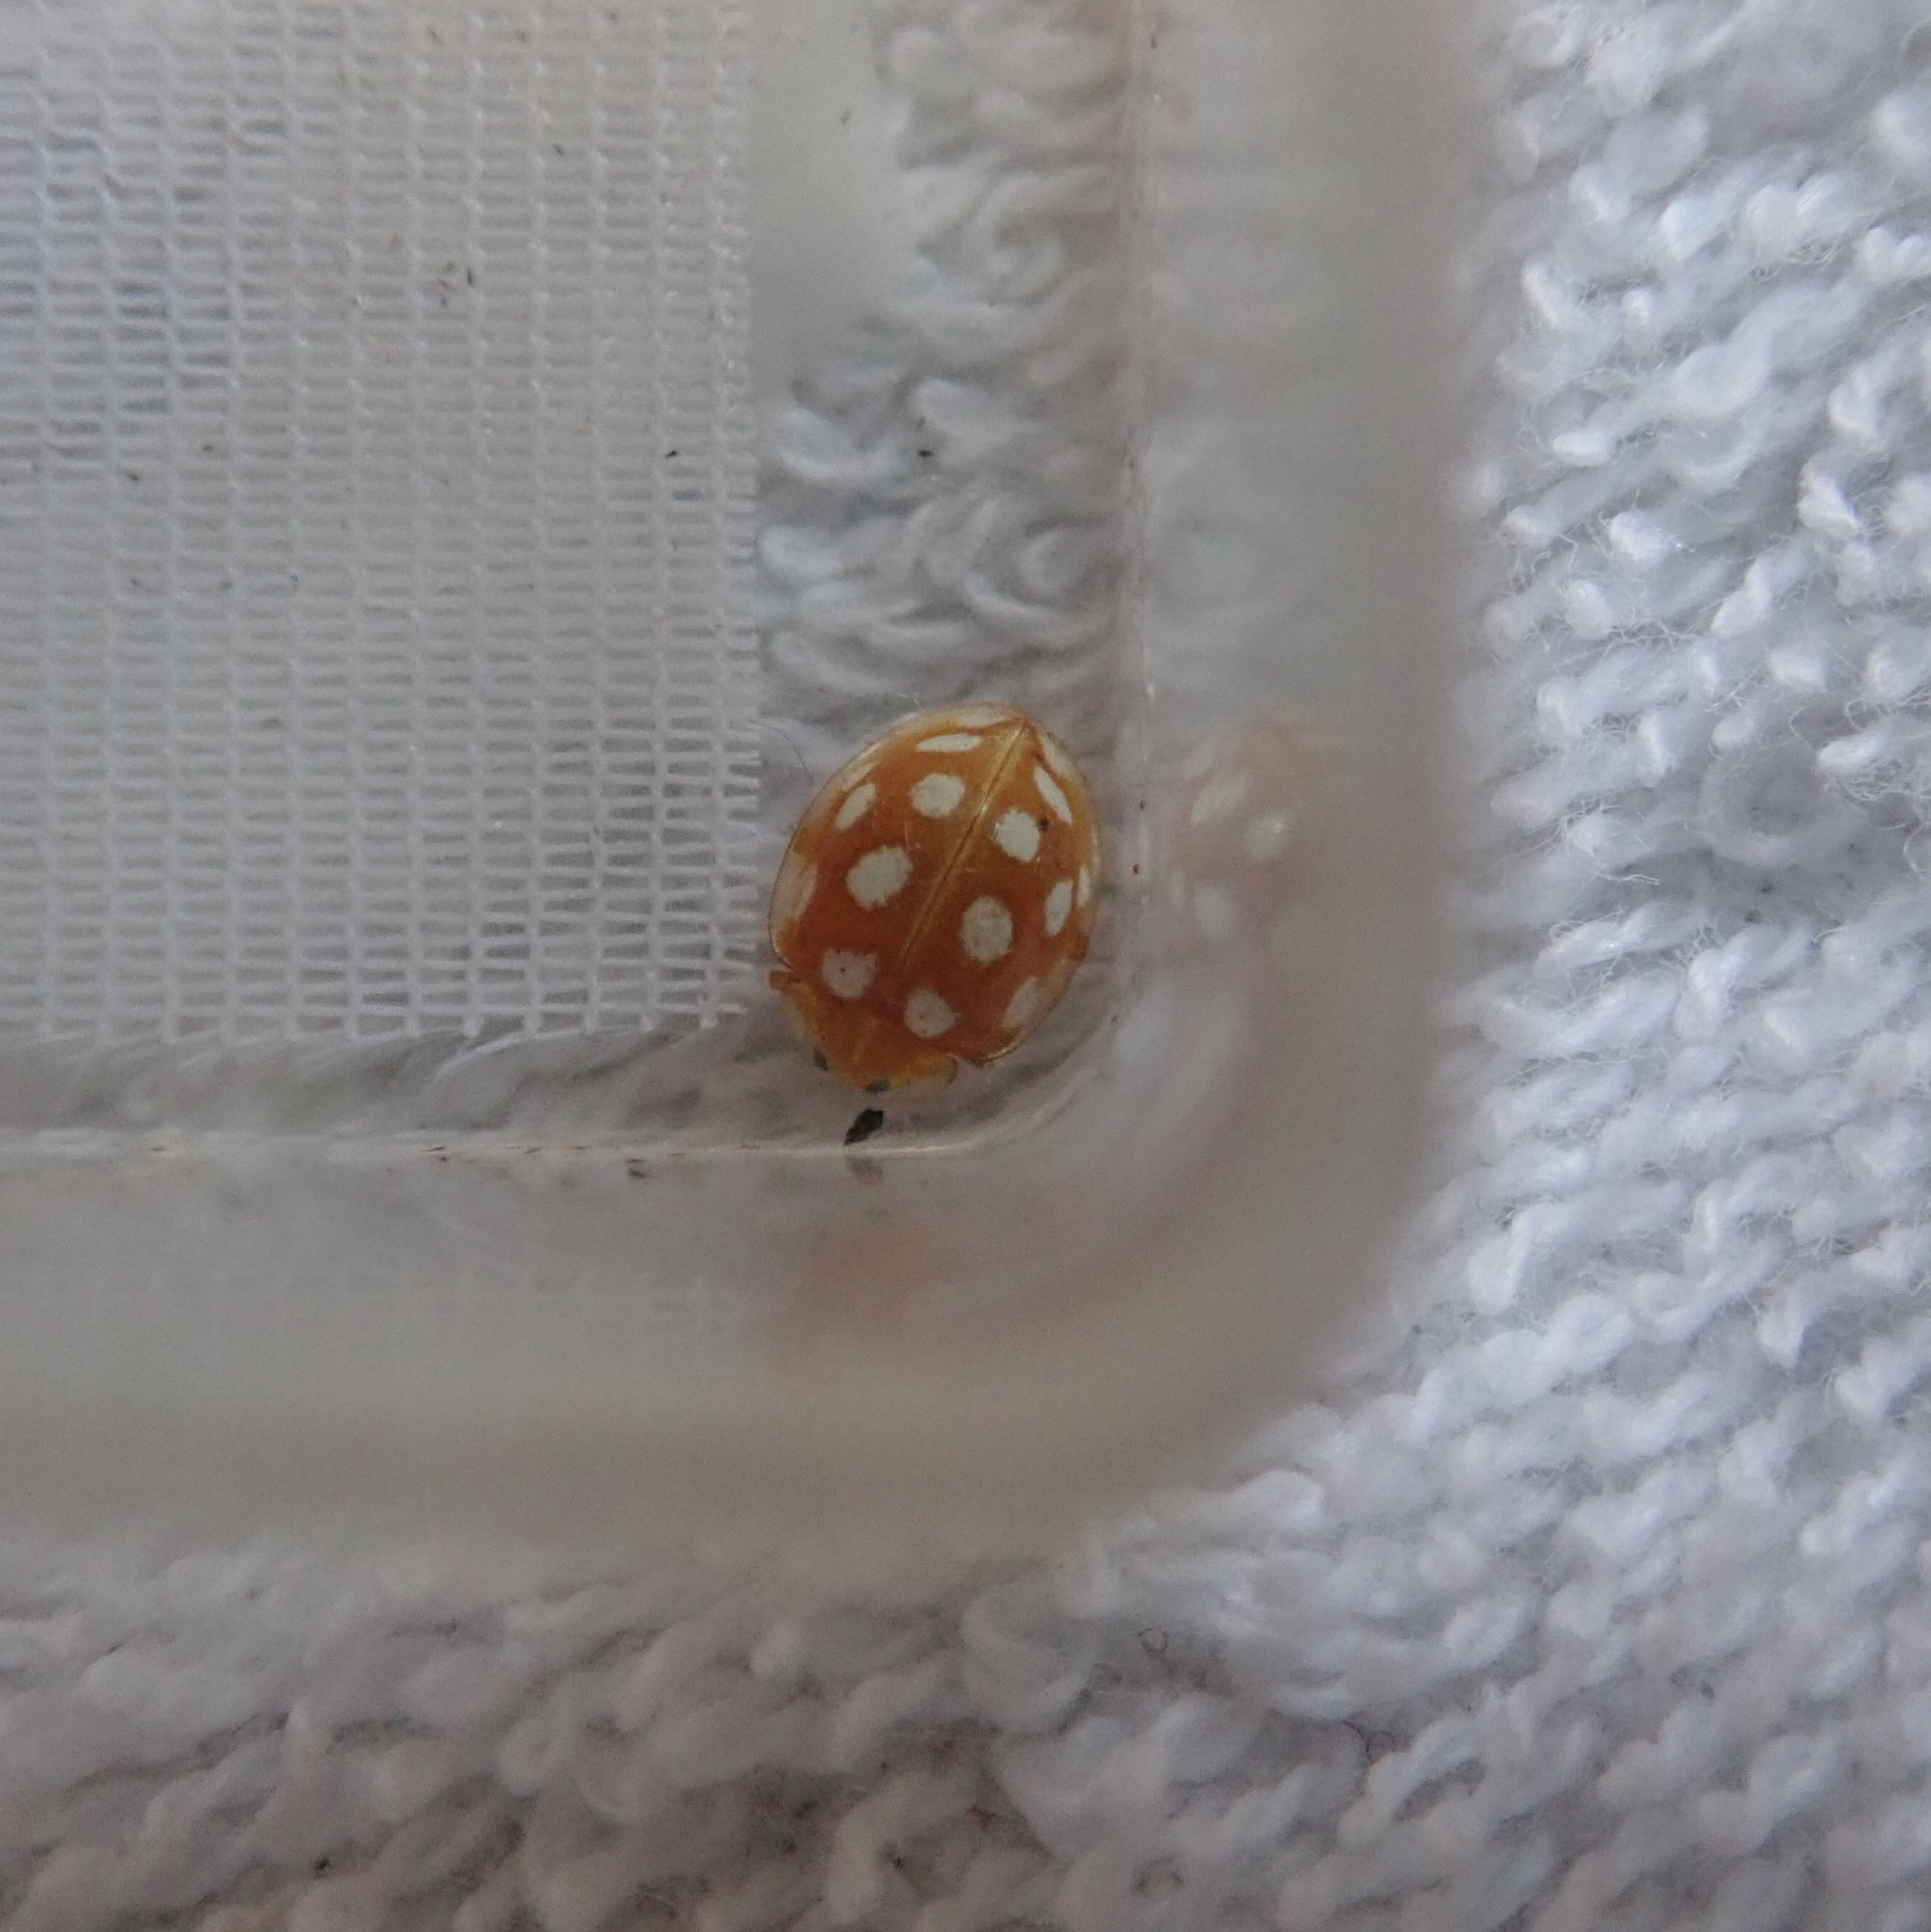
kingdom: Animalia
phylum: Arthropoda
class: Insecta
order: Coleoptera
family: Coccinellidae
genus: Halyzia
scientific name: Halyzia sedecimguttata
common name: Orange ladybird
